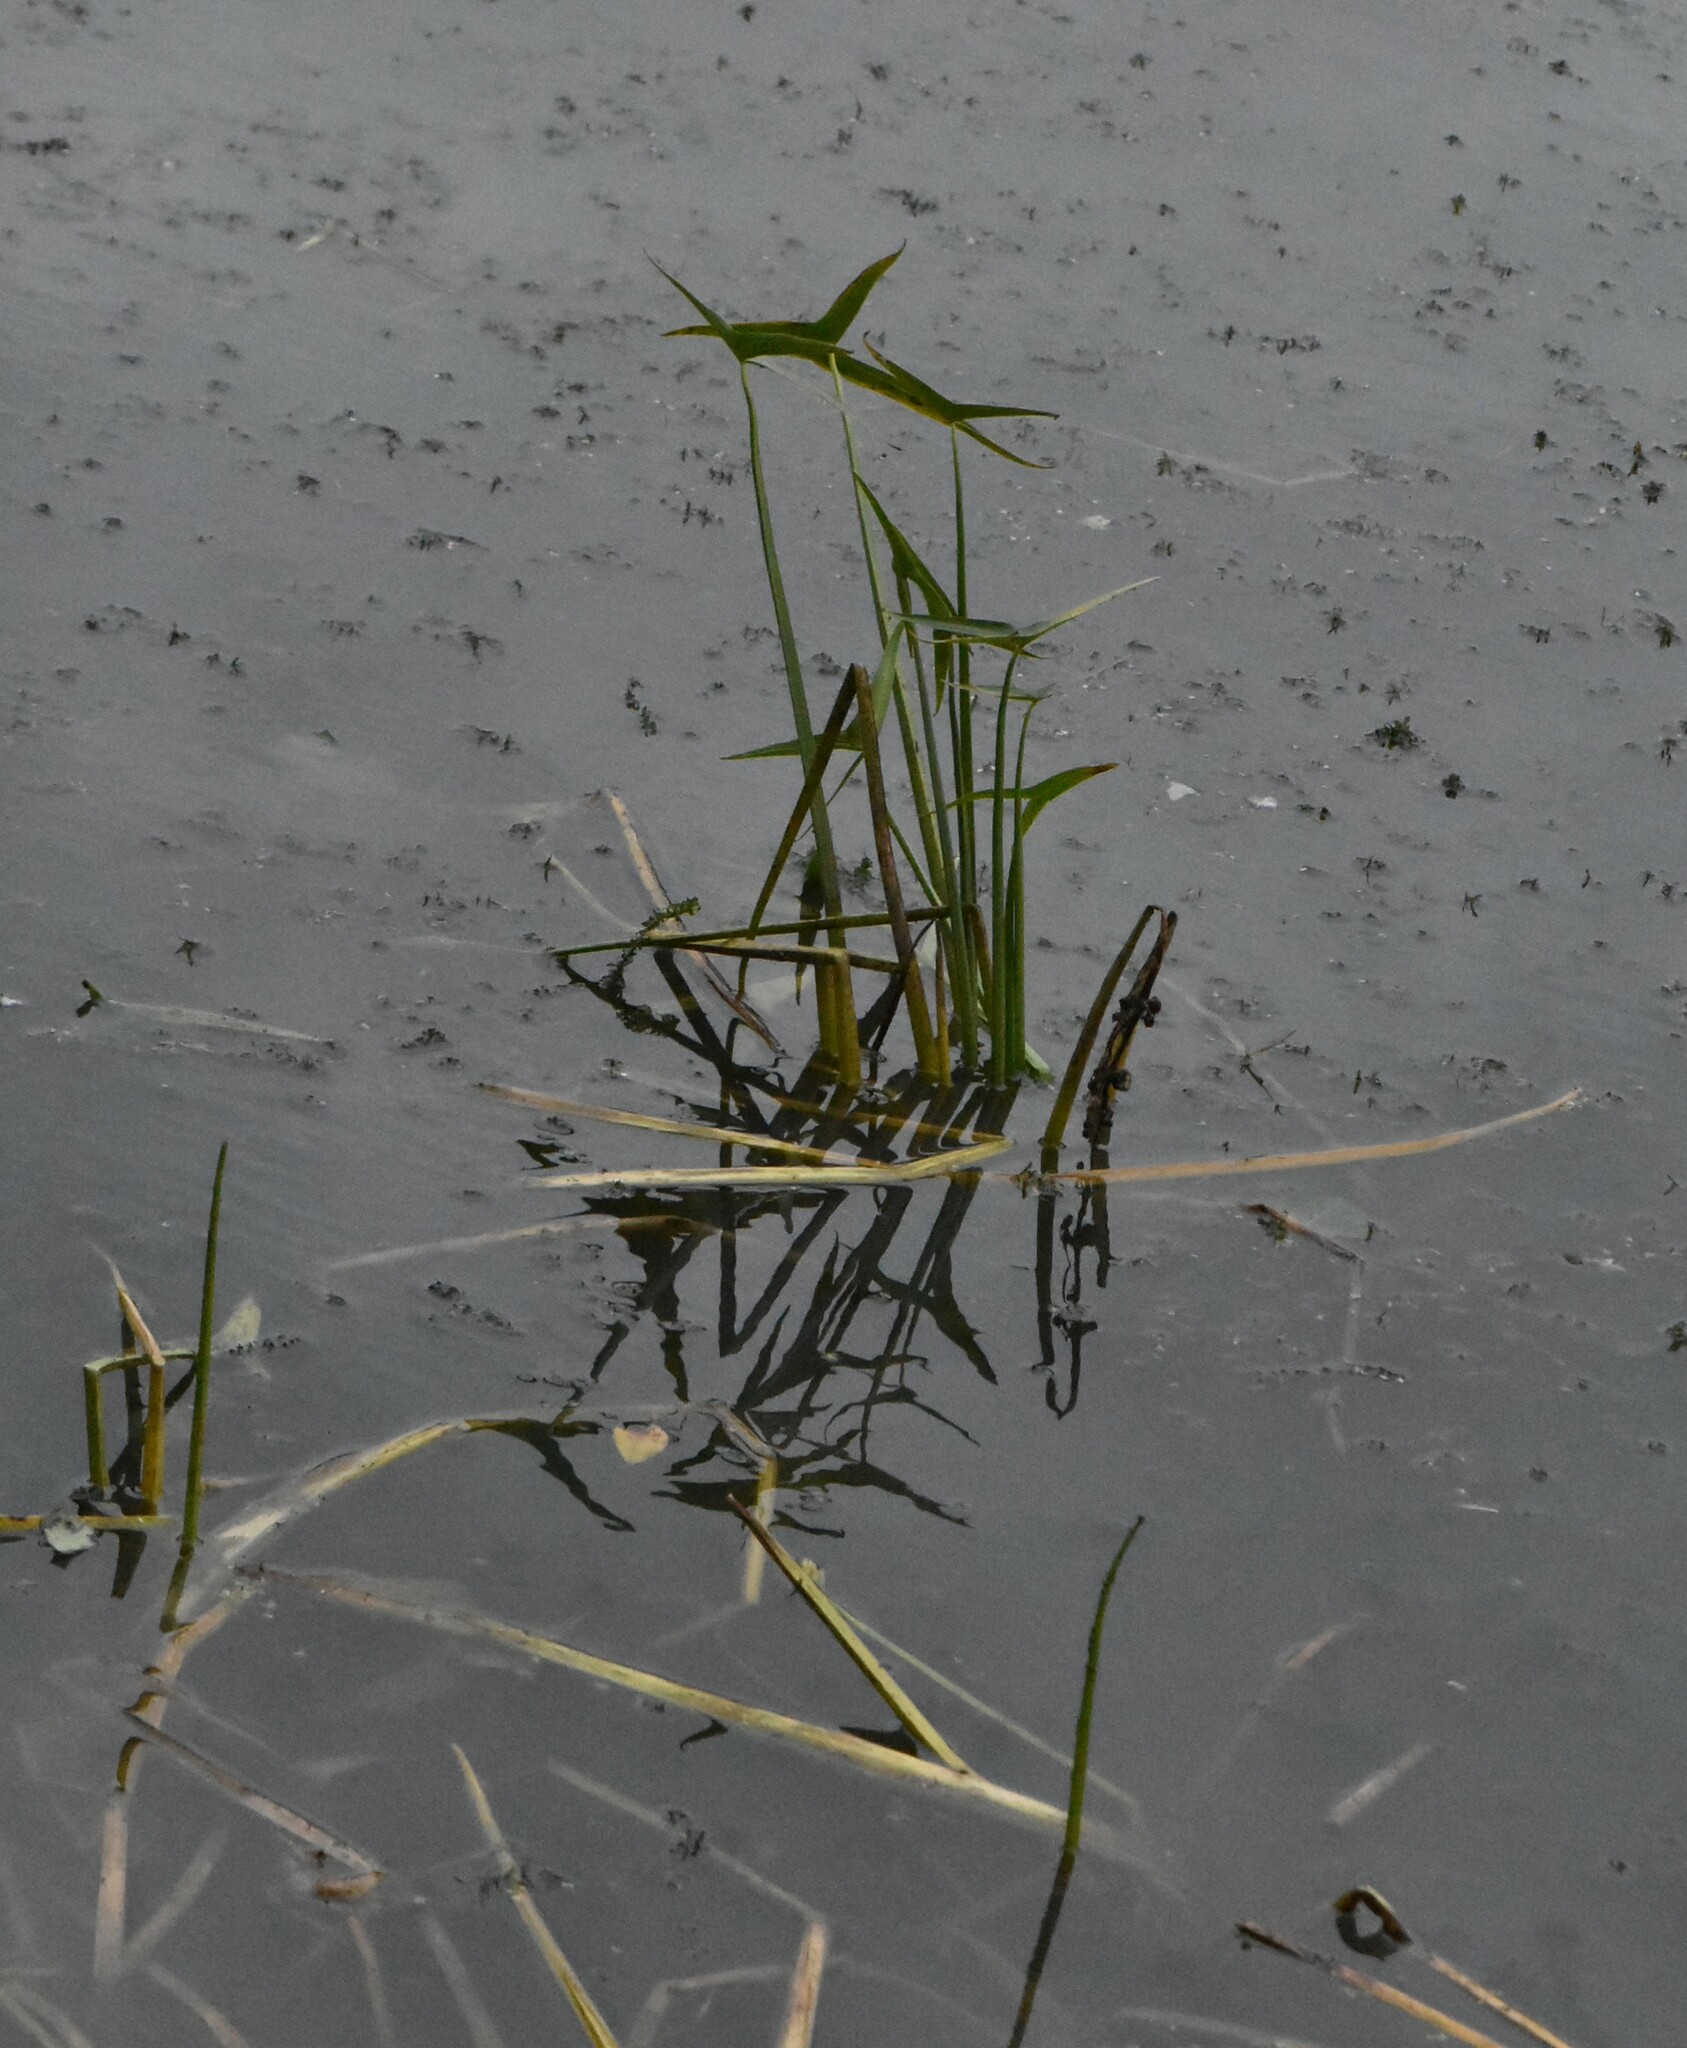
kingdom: Plantae
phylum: Tracheophyta
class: Liliopsida
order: Alismatales
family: Alismataceae
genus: Sagittaria
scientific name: Sagittaria sagittifolia
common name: Arrowhead
